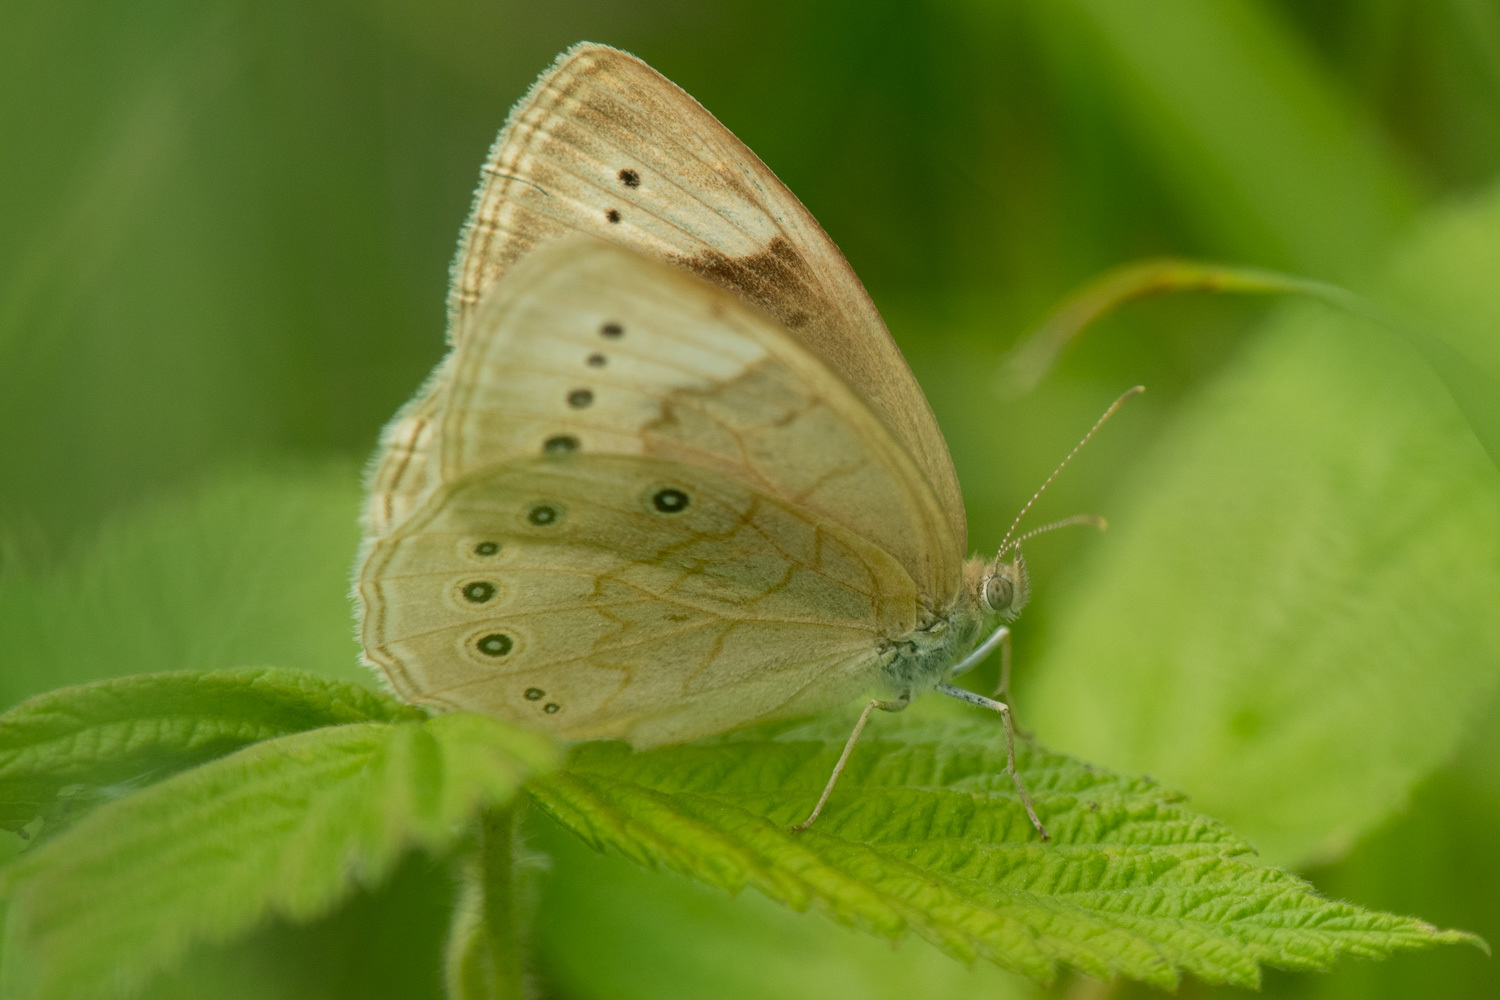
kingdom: Animalia
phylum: Arthropoda
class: Insecta
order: Lepidoptera
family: Nymphalidae
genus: Lethe
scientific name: Lethe eurydice
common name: Eyed brown
